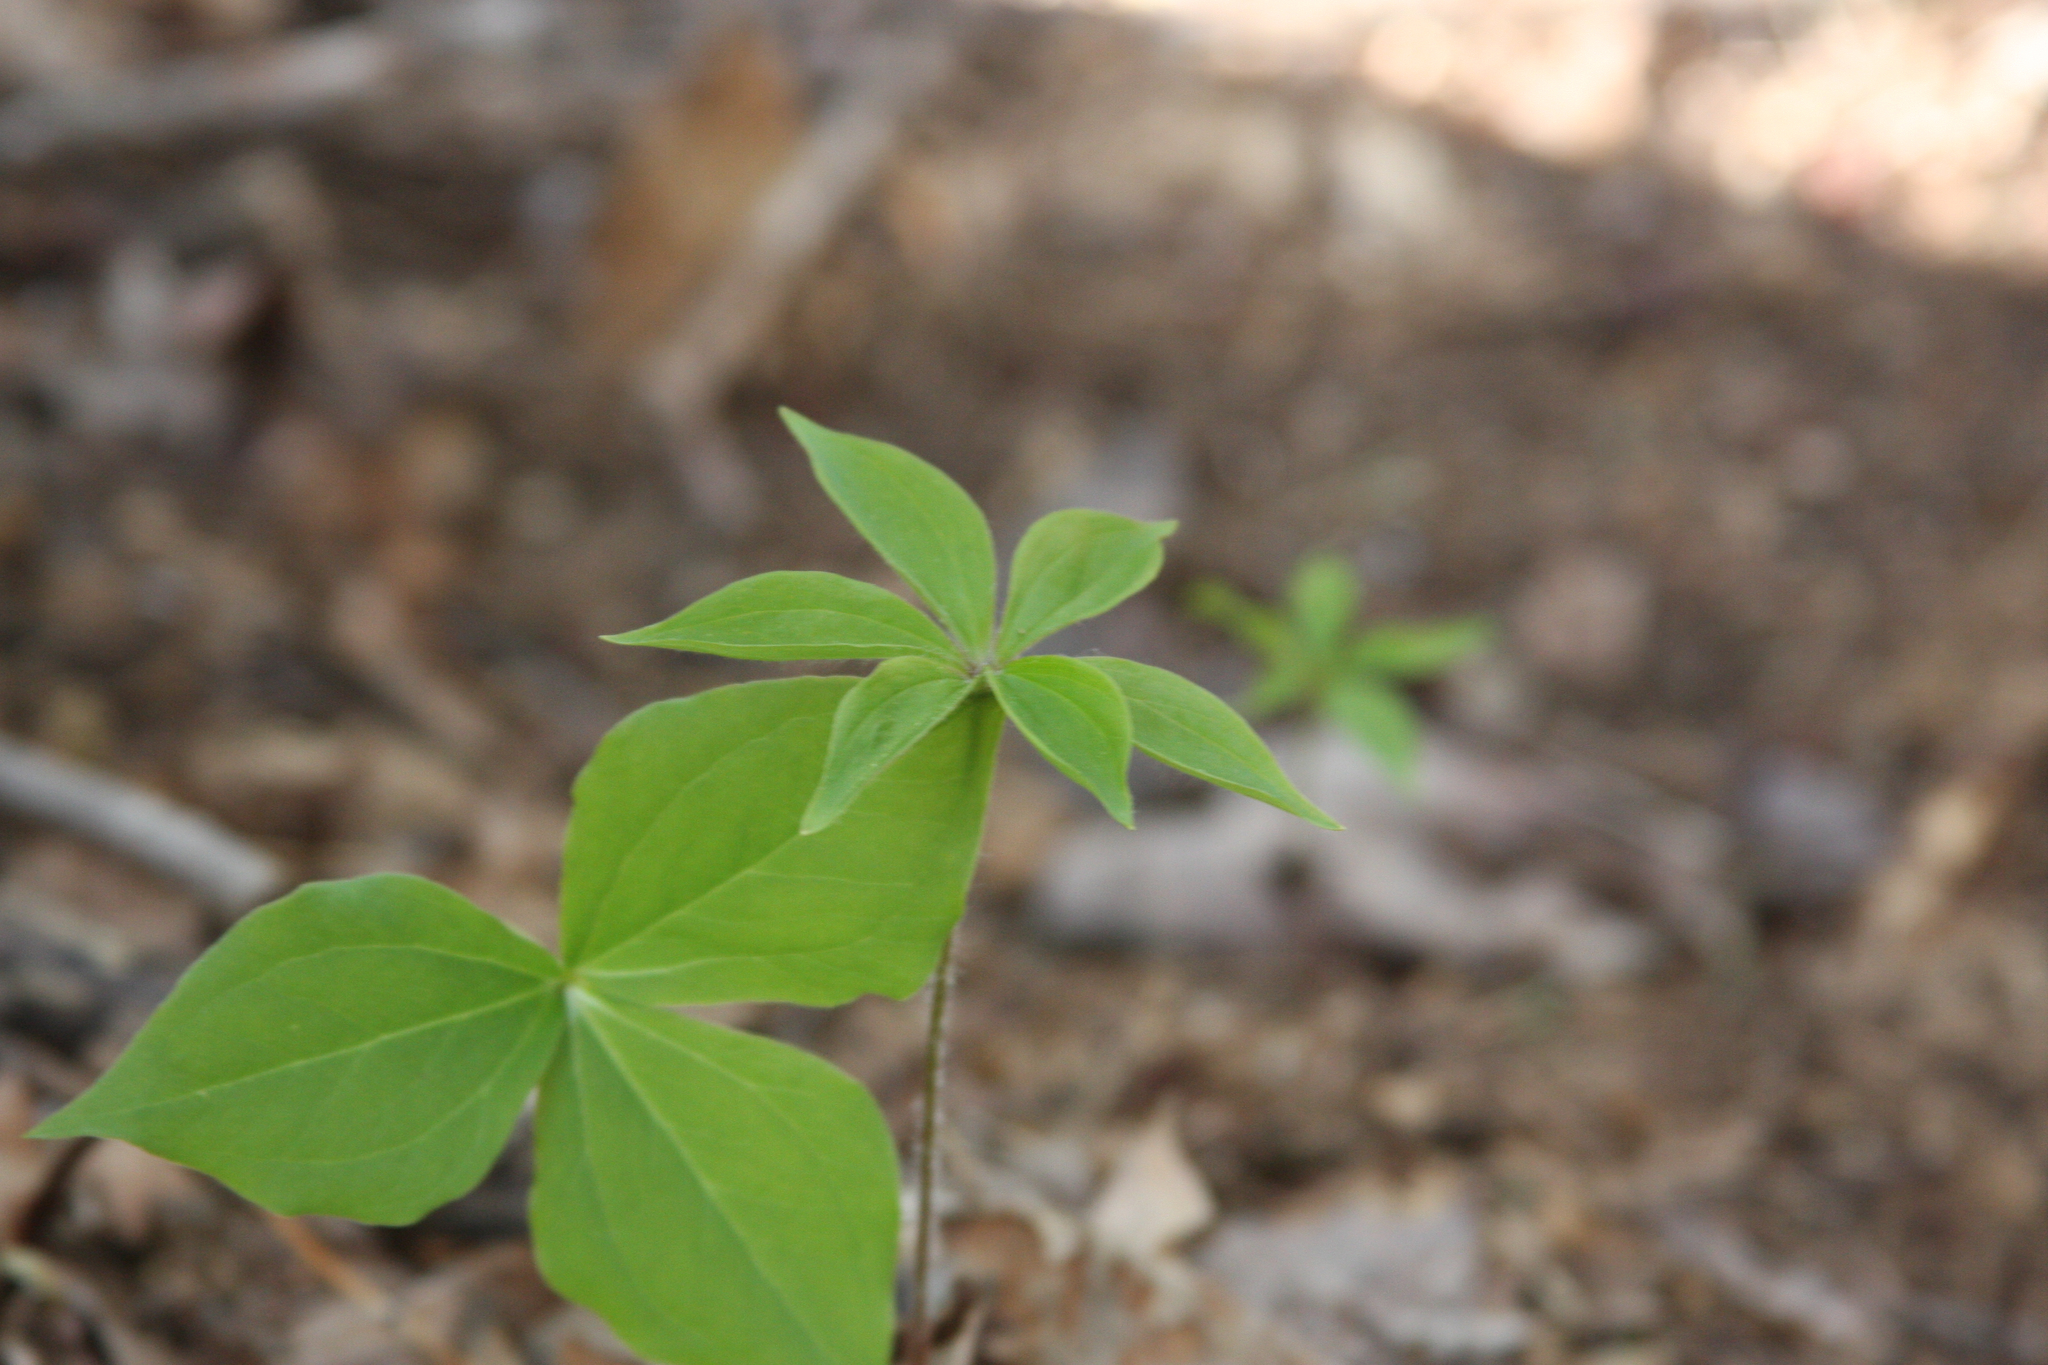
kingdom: Plantae
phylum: Tracheophyta
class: Liliopsida
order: Liliales
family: Liliaceae
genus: Medeola
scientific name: Medeola virginiana
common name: Indian cucumber-root
